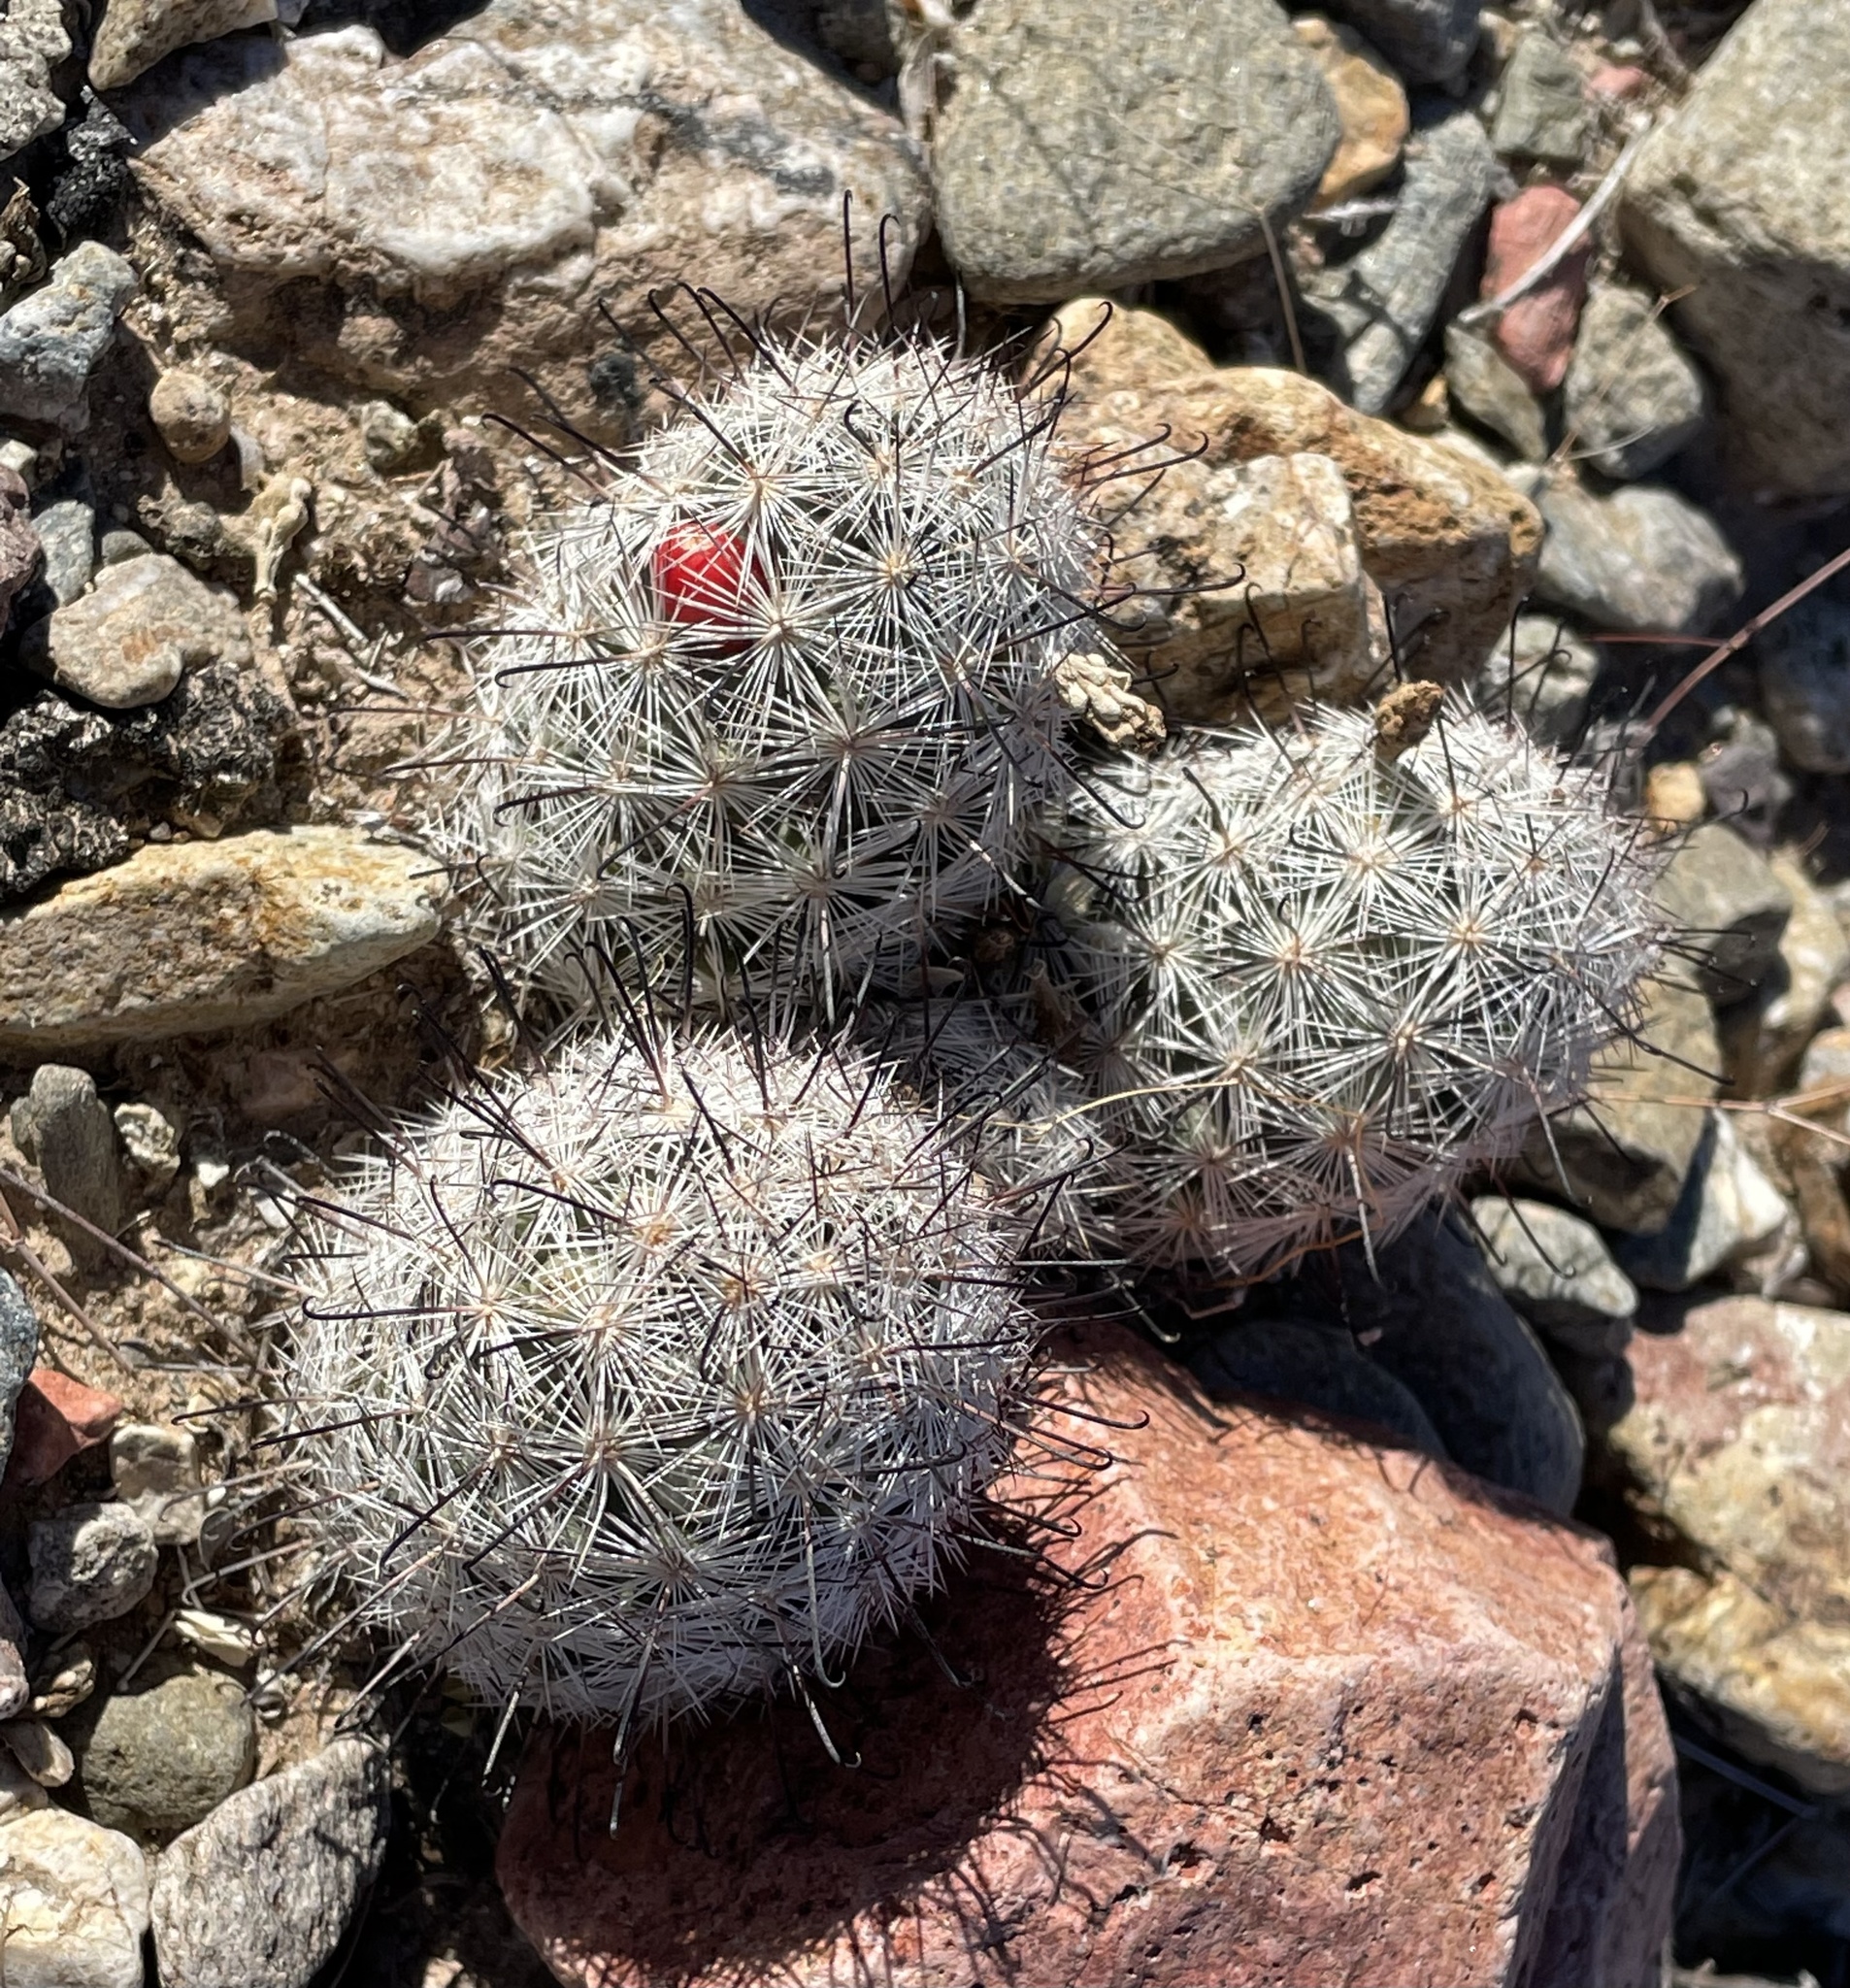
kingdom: Plantae
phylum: Tracheophyta
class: Magnoliopsida
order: Caryophyllales
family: Cactaceae
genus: Cochemiea
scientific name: Cochemiea tetrancistra
